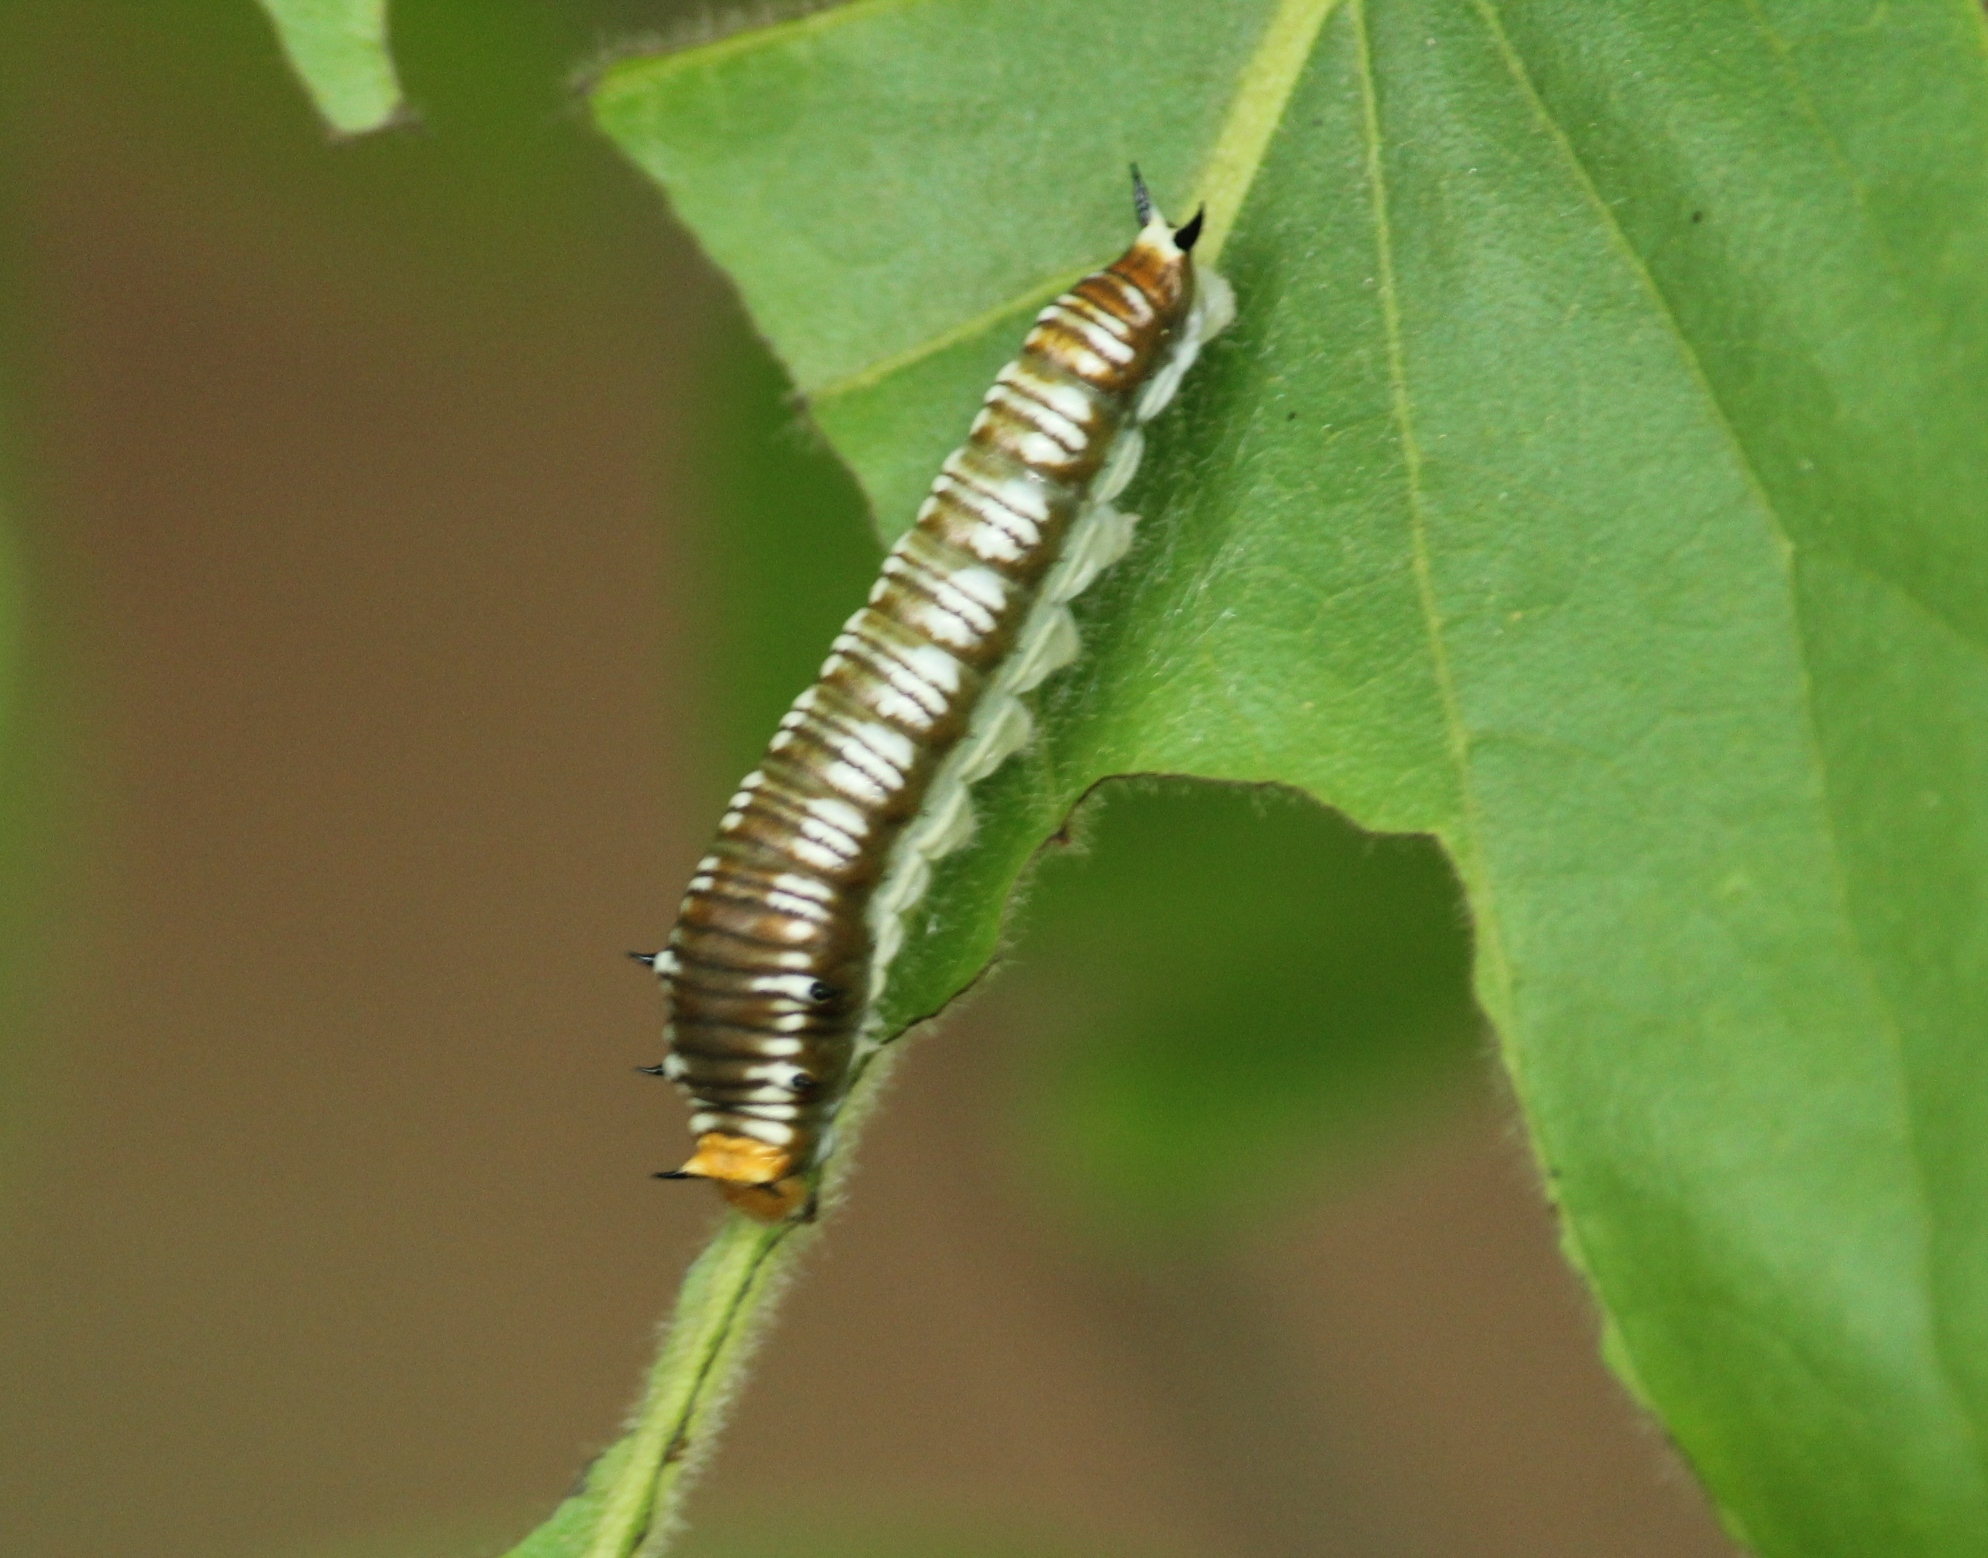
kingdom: Animalia
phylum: Arthropoda
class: Insecta
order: Lepidoptera
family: Papilionidae
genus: Graphium
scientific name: Graphium nomius
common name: Spot swordtail
